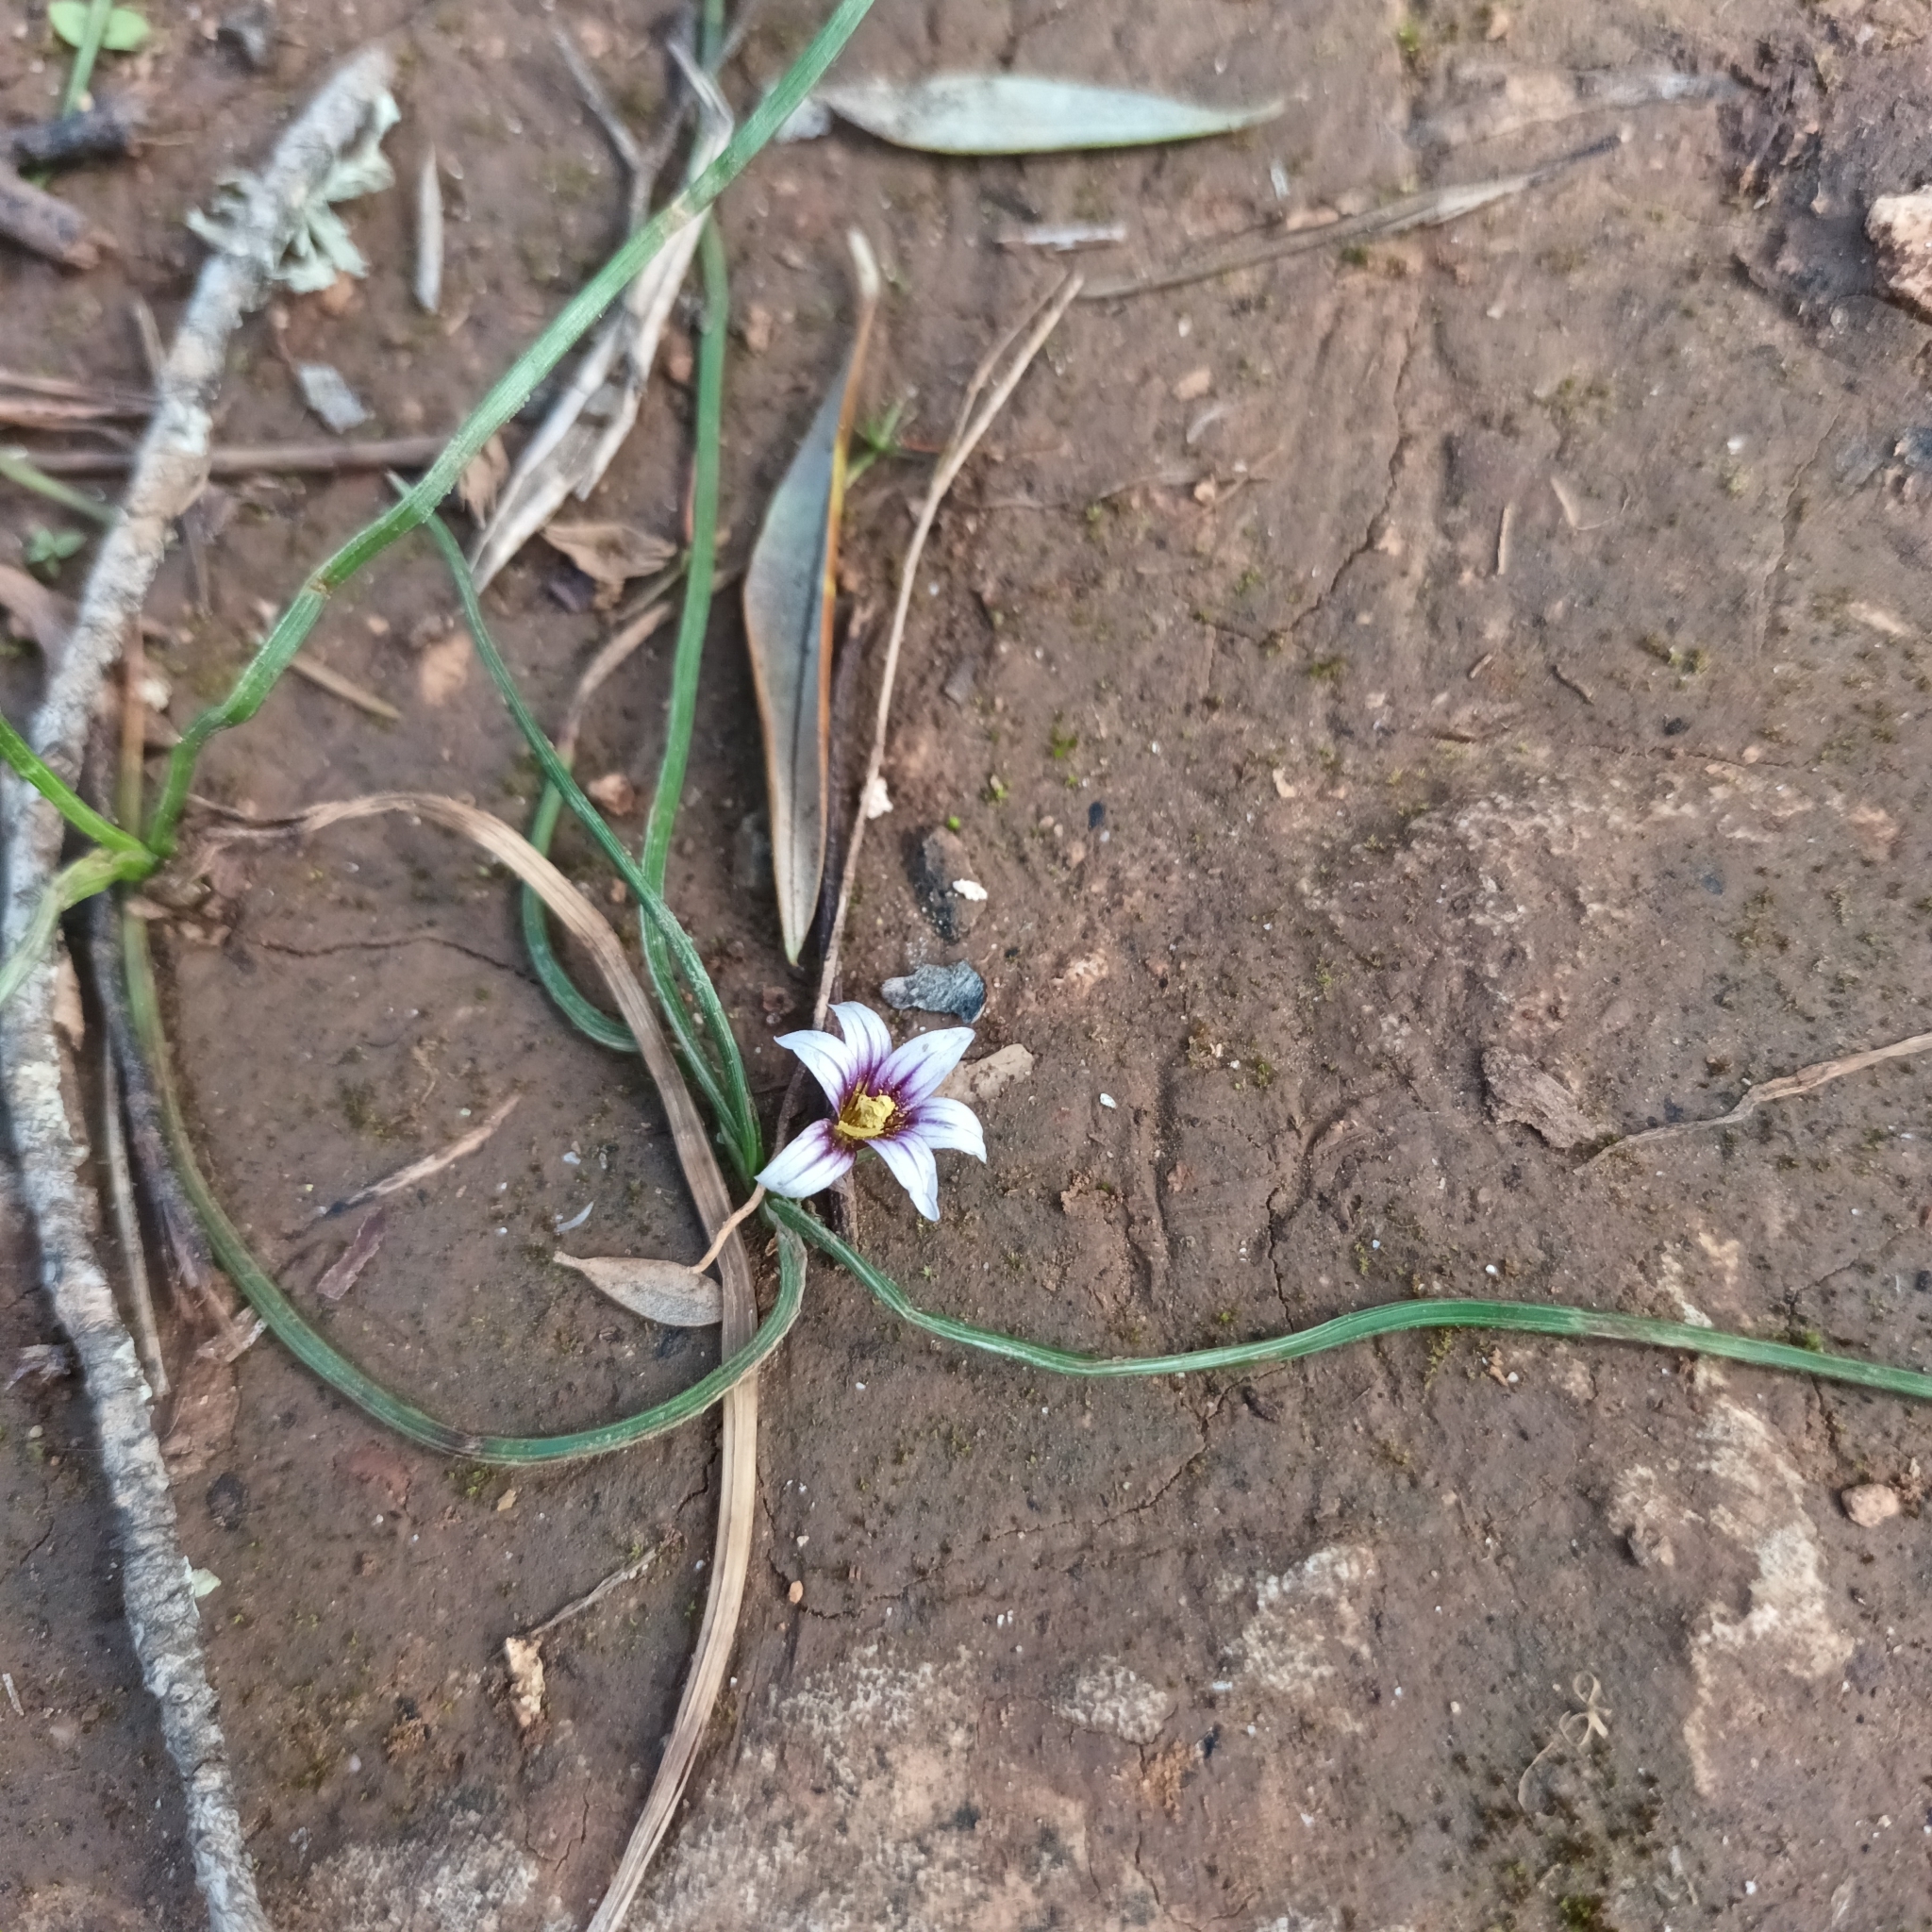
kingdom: Plantae
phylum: Tracheophyta
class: Liliopsida
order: Asparagales
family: Iridaceae
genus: Romulea
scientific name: Romulea columnae
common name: Sand-crocus
